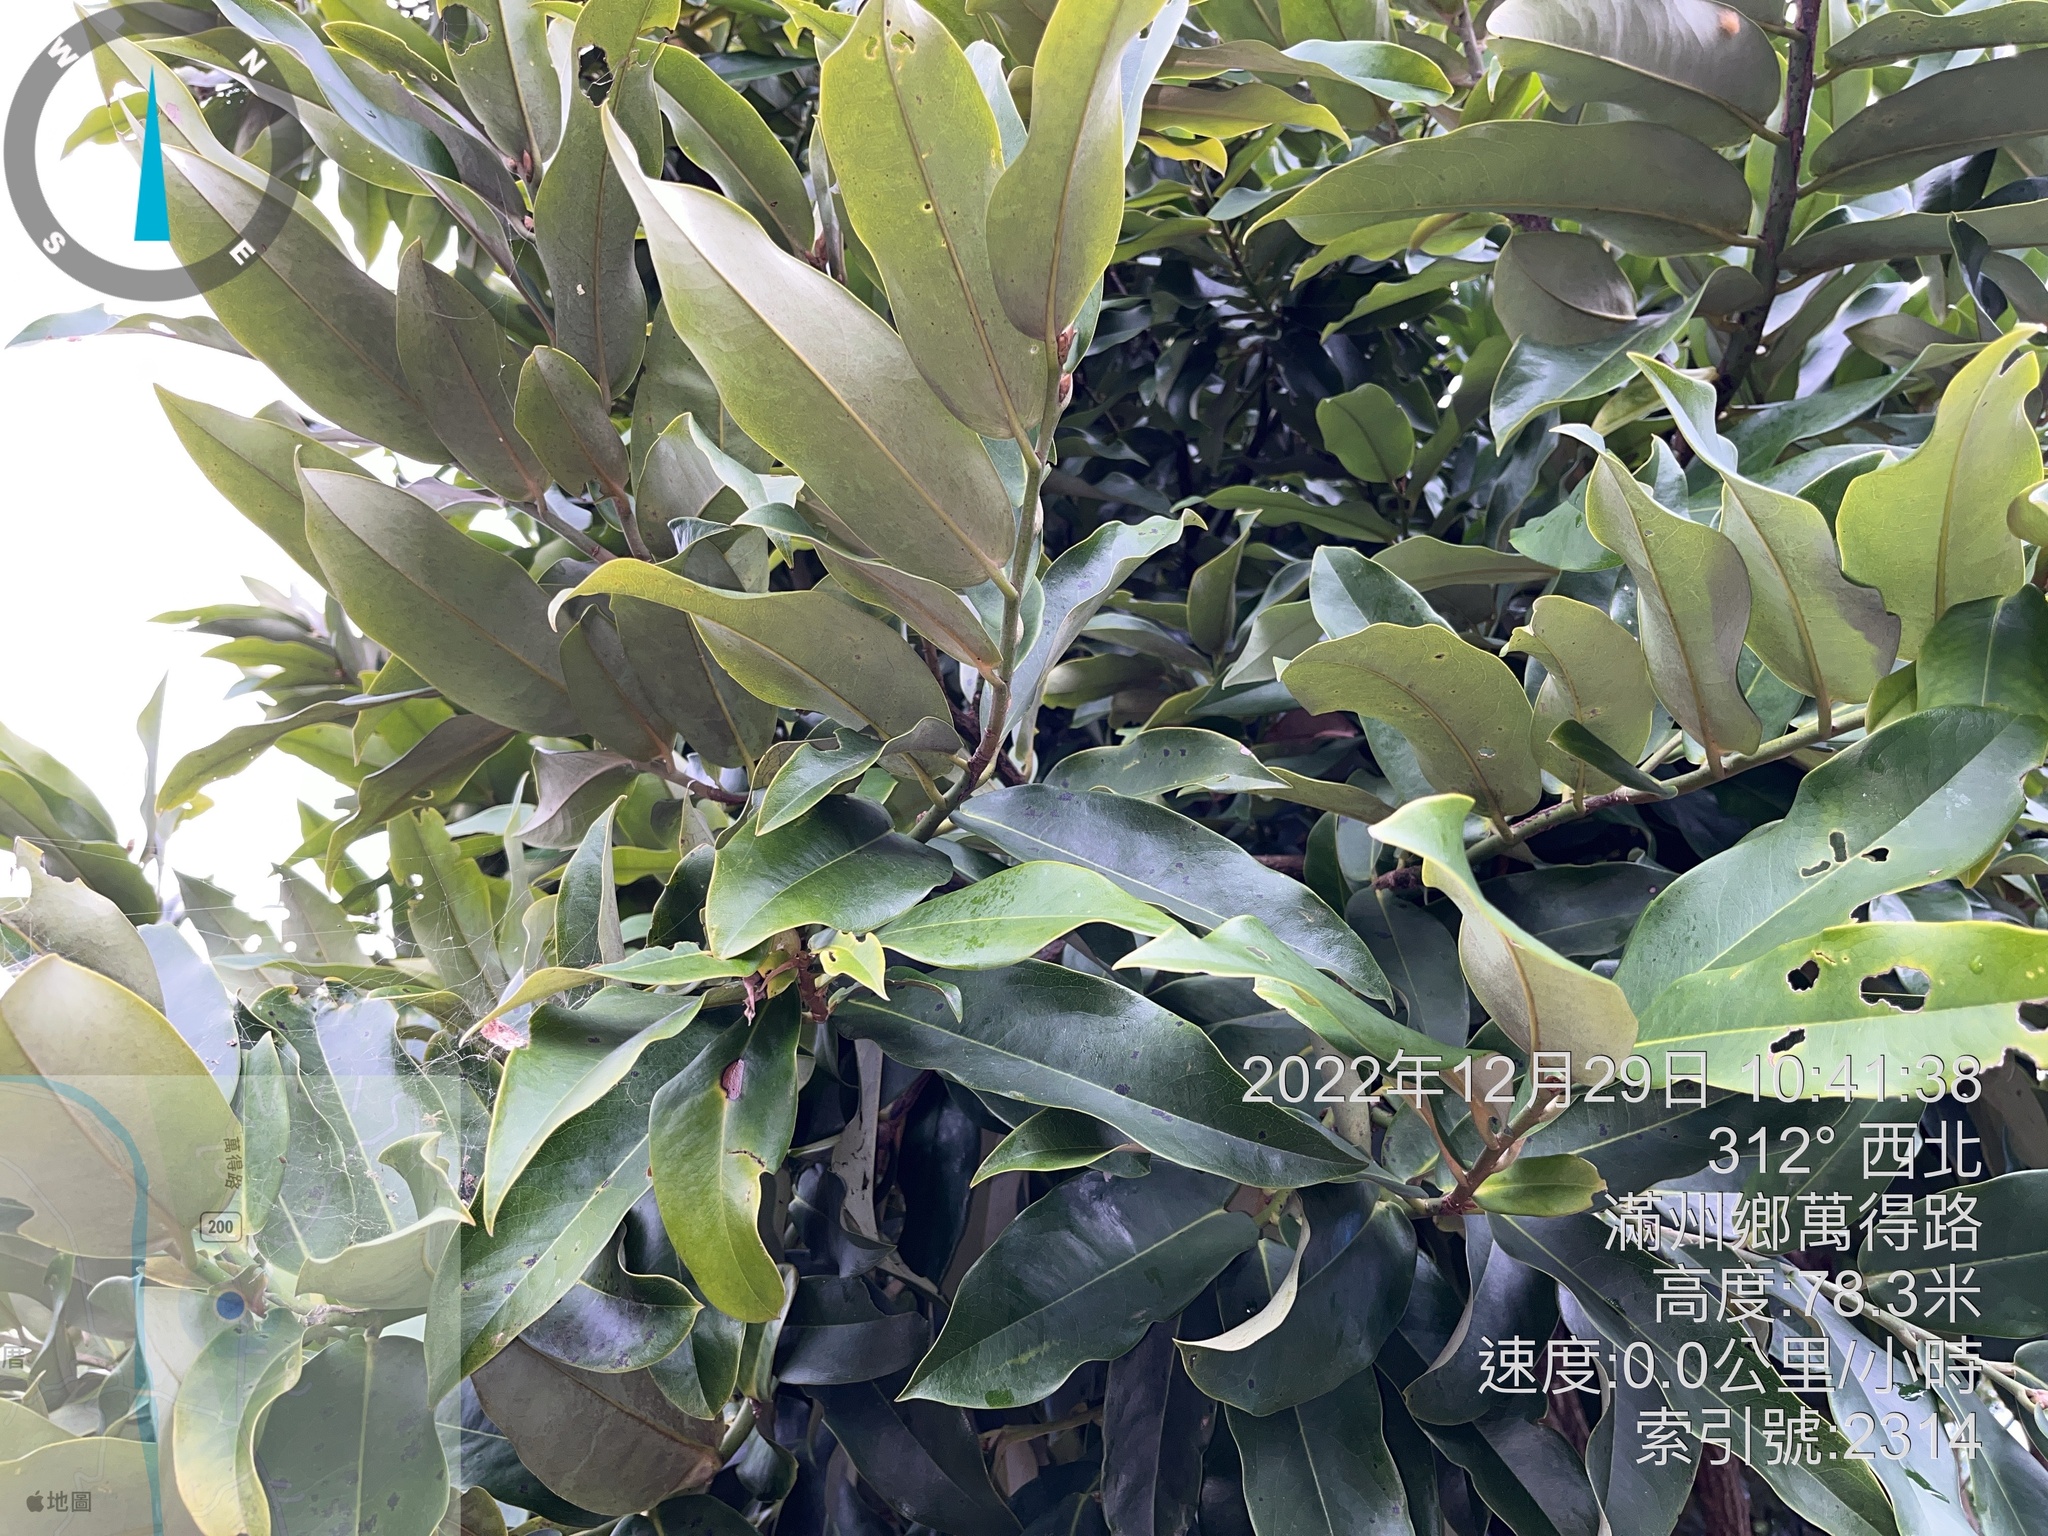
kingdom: Plantae
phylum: Tracheophyta
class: Magnoliopsida
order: Ericales
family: Ebenaceae
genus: Diospyros
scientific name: Diospyros blancoi
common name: Mabola-tree
